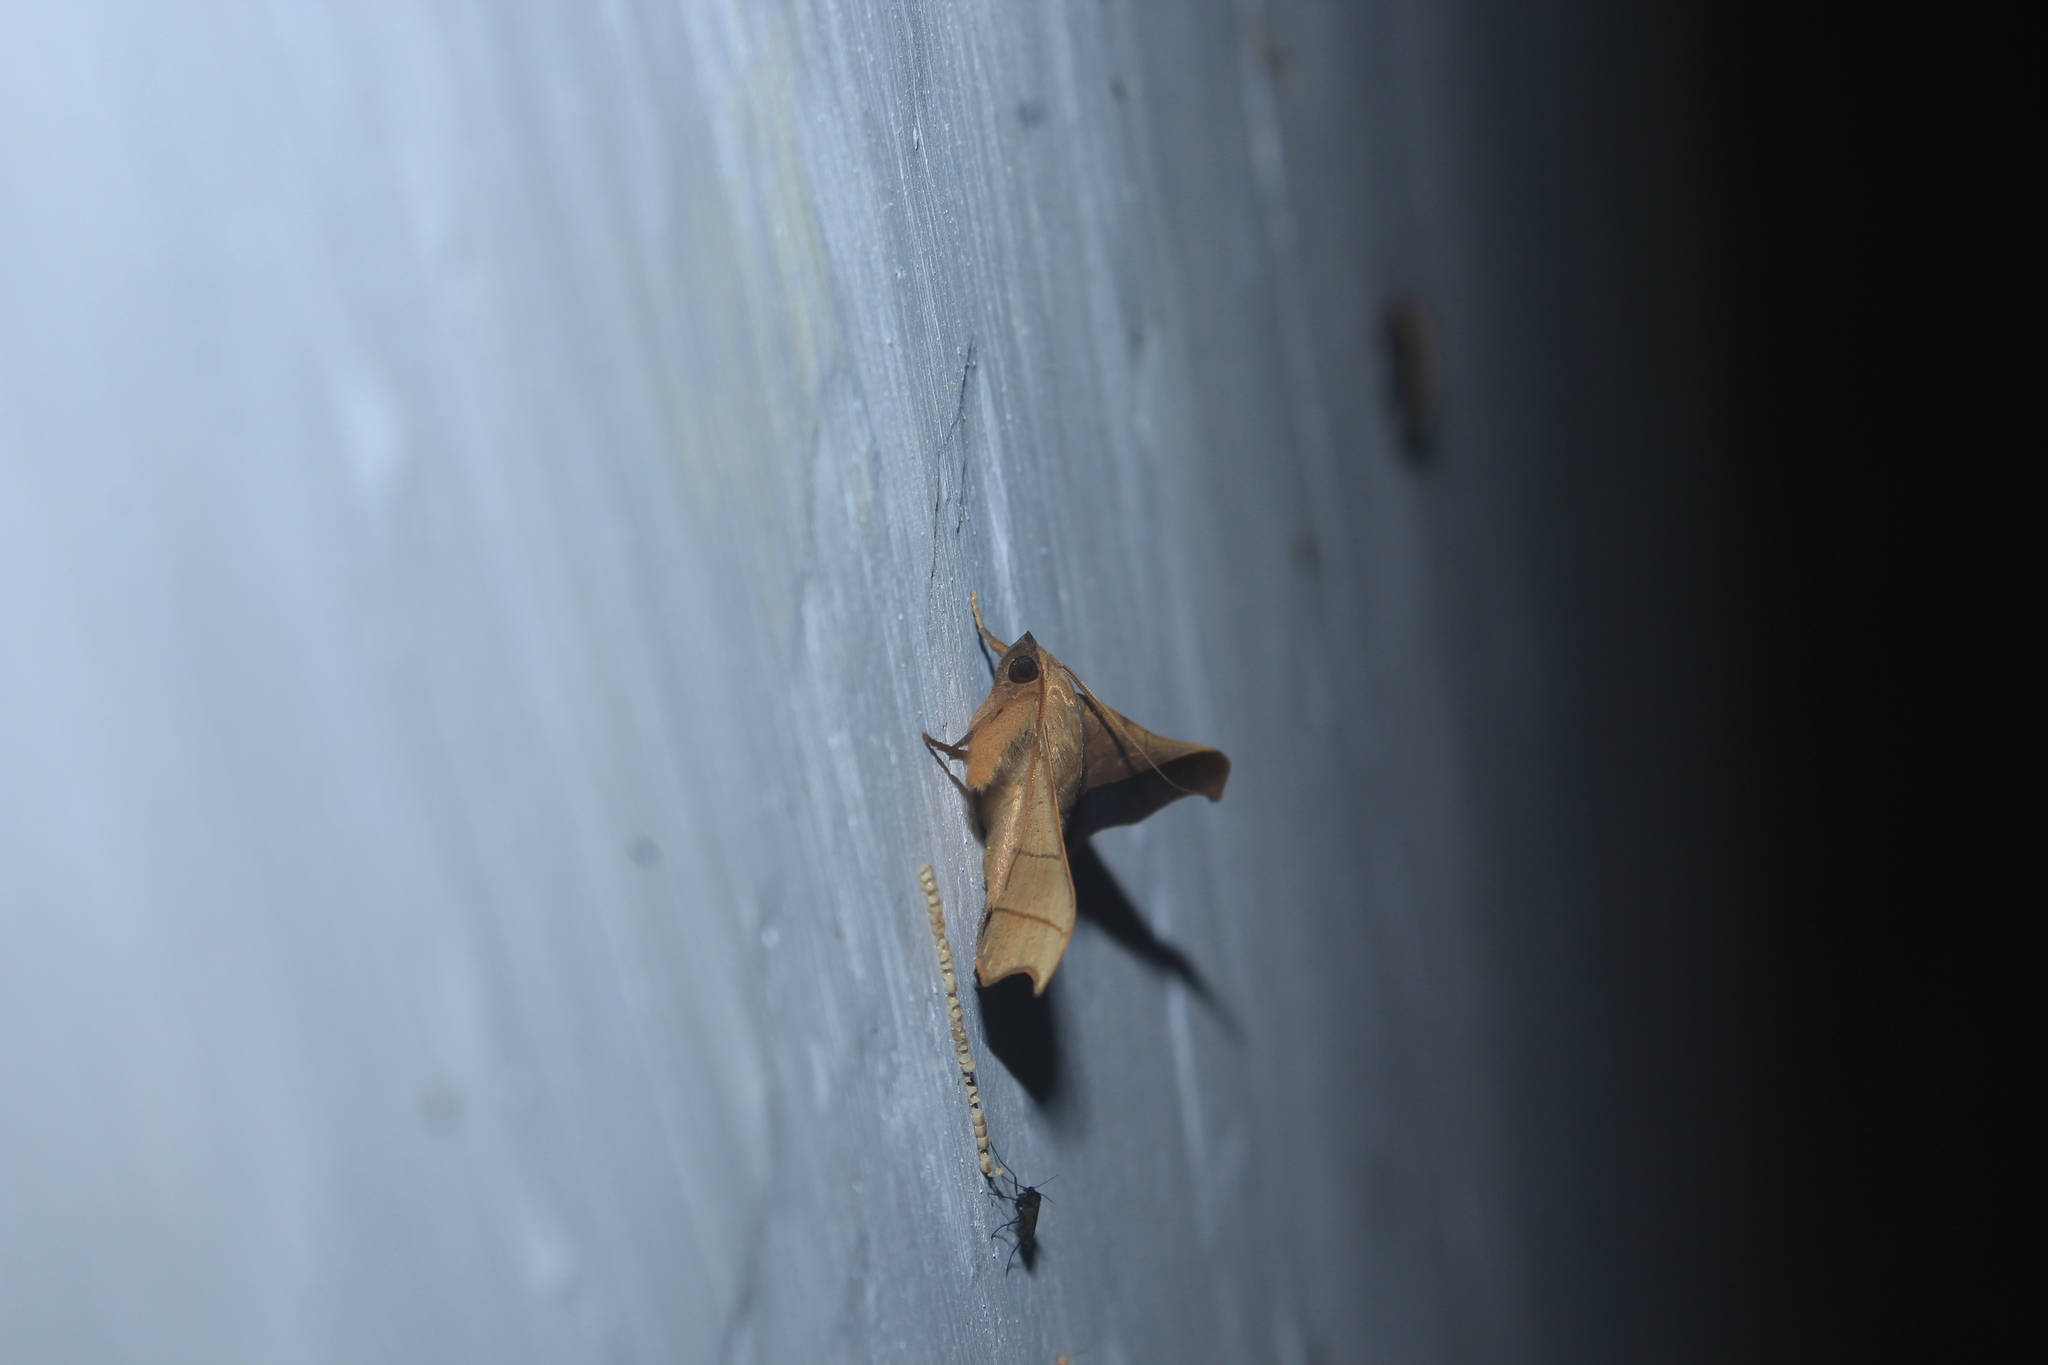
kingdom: Animalia
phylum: Arthropoda
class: Insecta
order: Lepidoptera
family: Erebidae
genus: Chilkasa
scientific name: Chilkasa falcata
